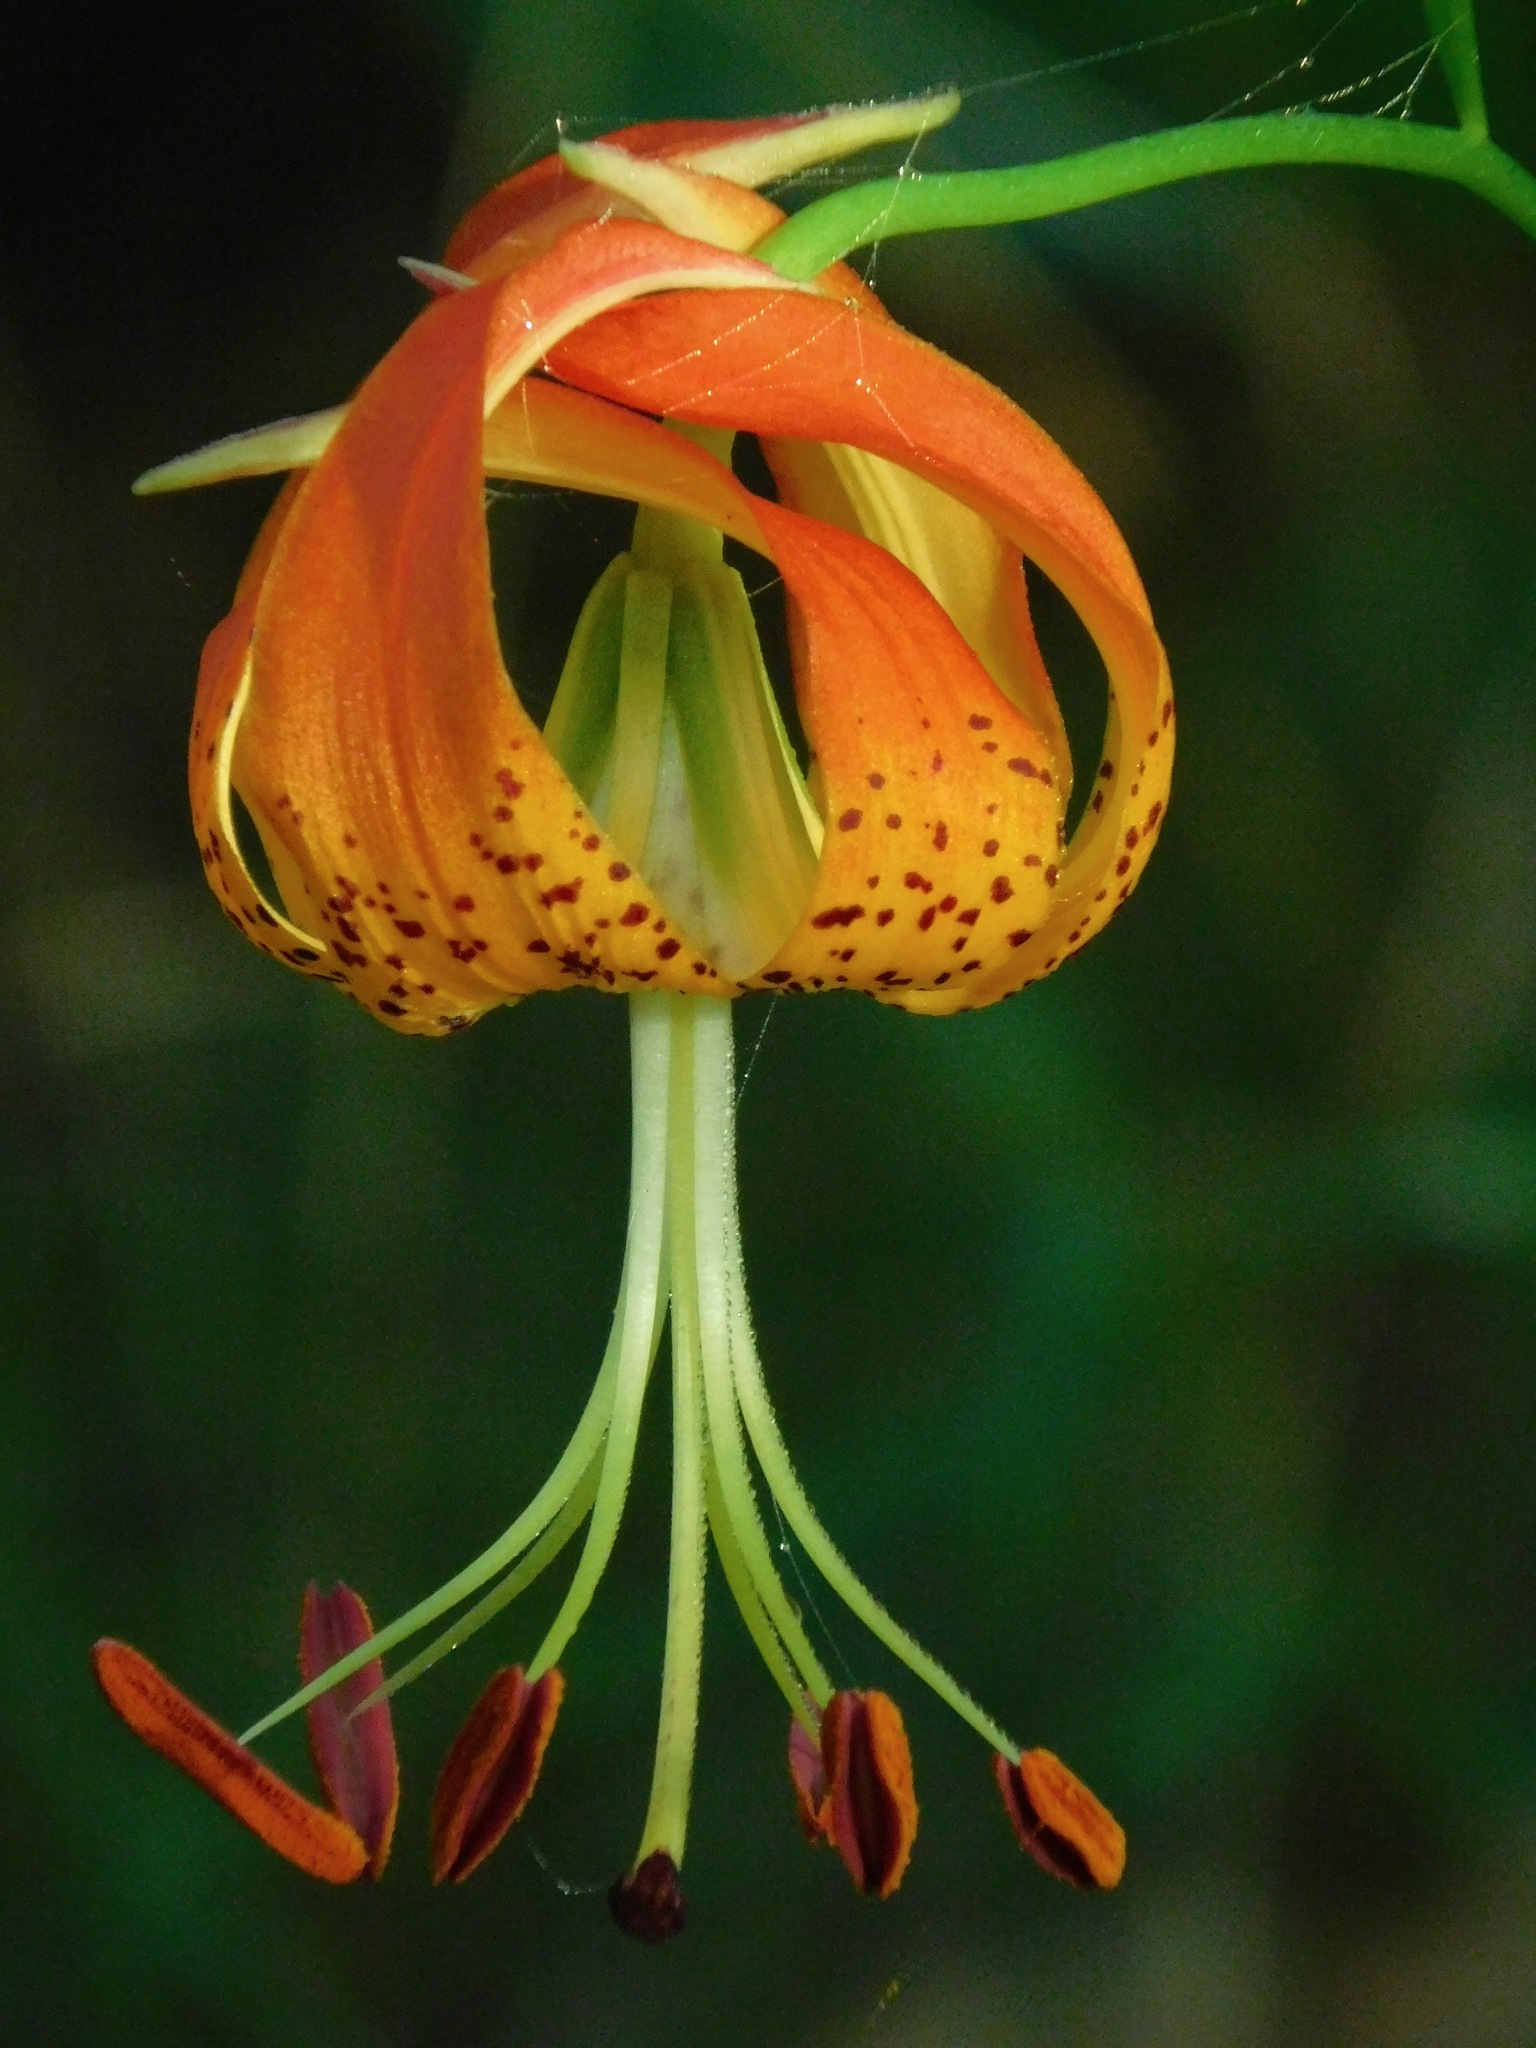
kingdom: Plantae
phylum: Tracheophyta
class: Liliopsida
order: Liliales
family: Liliaceae
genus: Lilium
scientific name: Lilium michauxii
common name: Carolina lily
